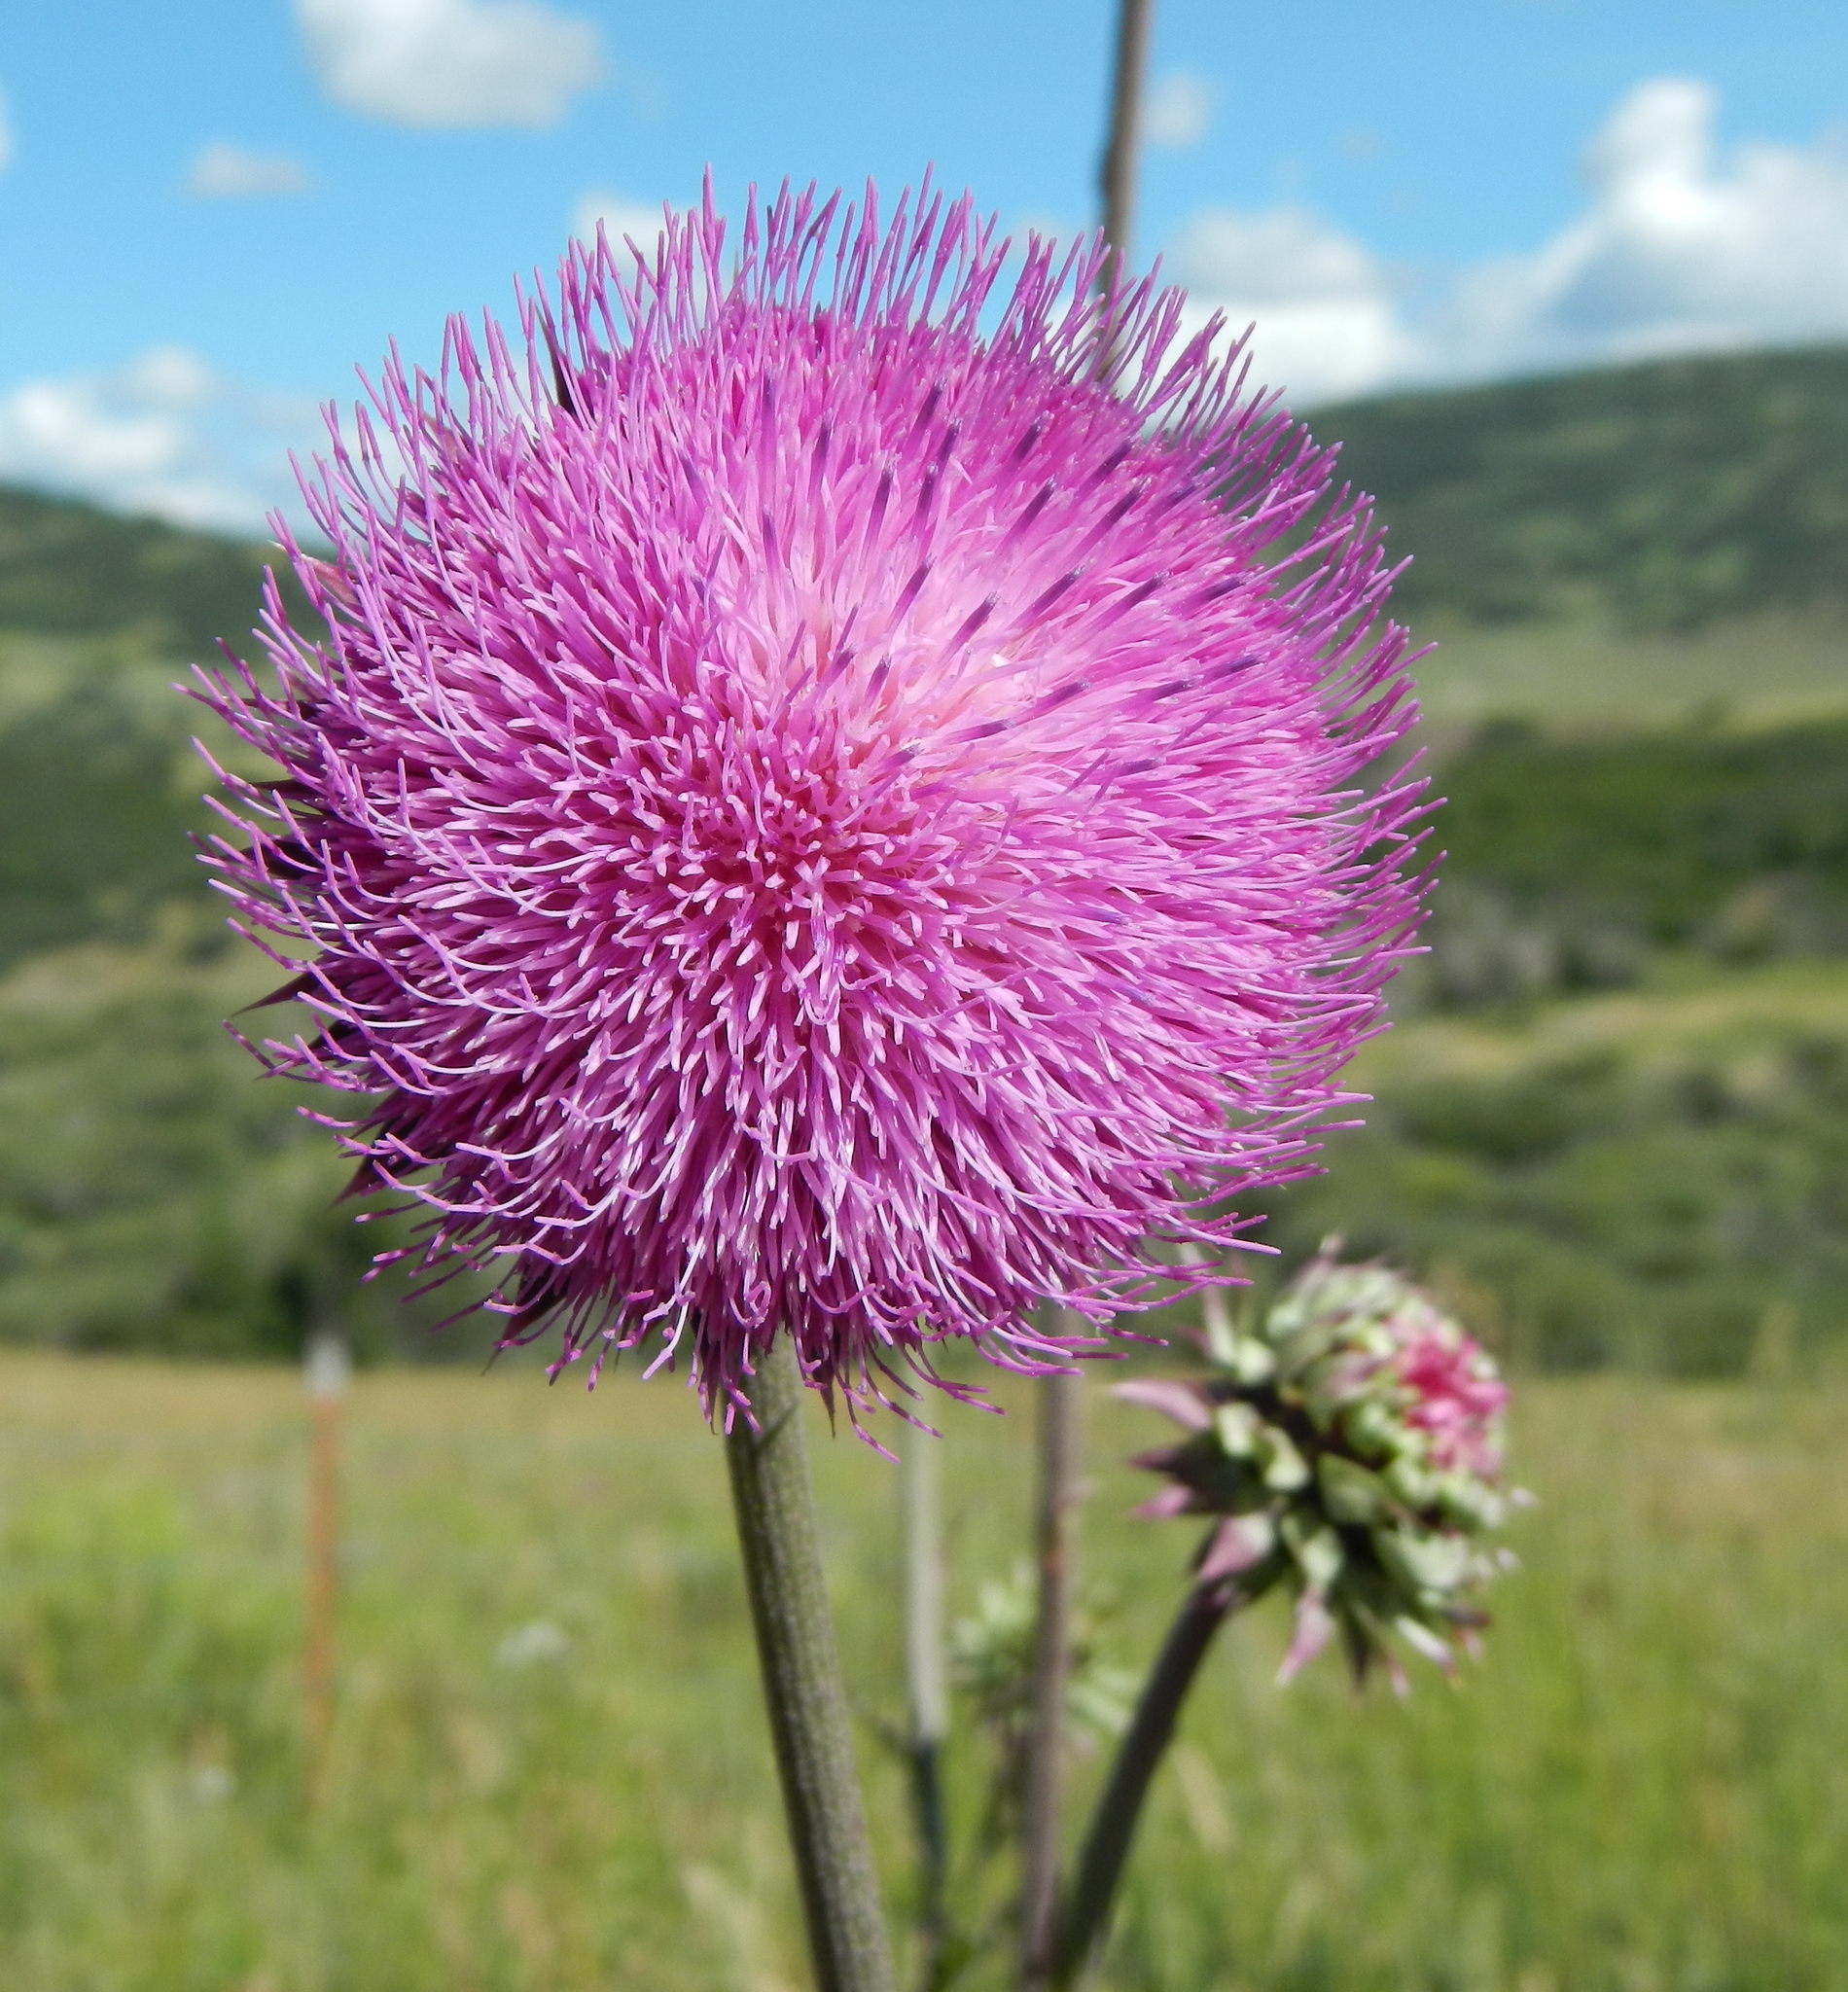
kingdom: Plantae
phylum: Tracheophyta
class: Magnoliopsida
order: Asterales
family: Asteraceae
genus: Carduus
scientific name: Carduus nutans
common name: Musk thistle
